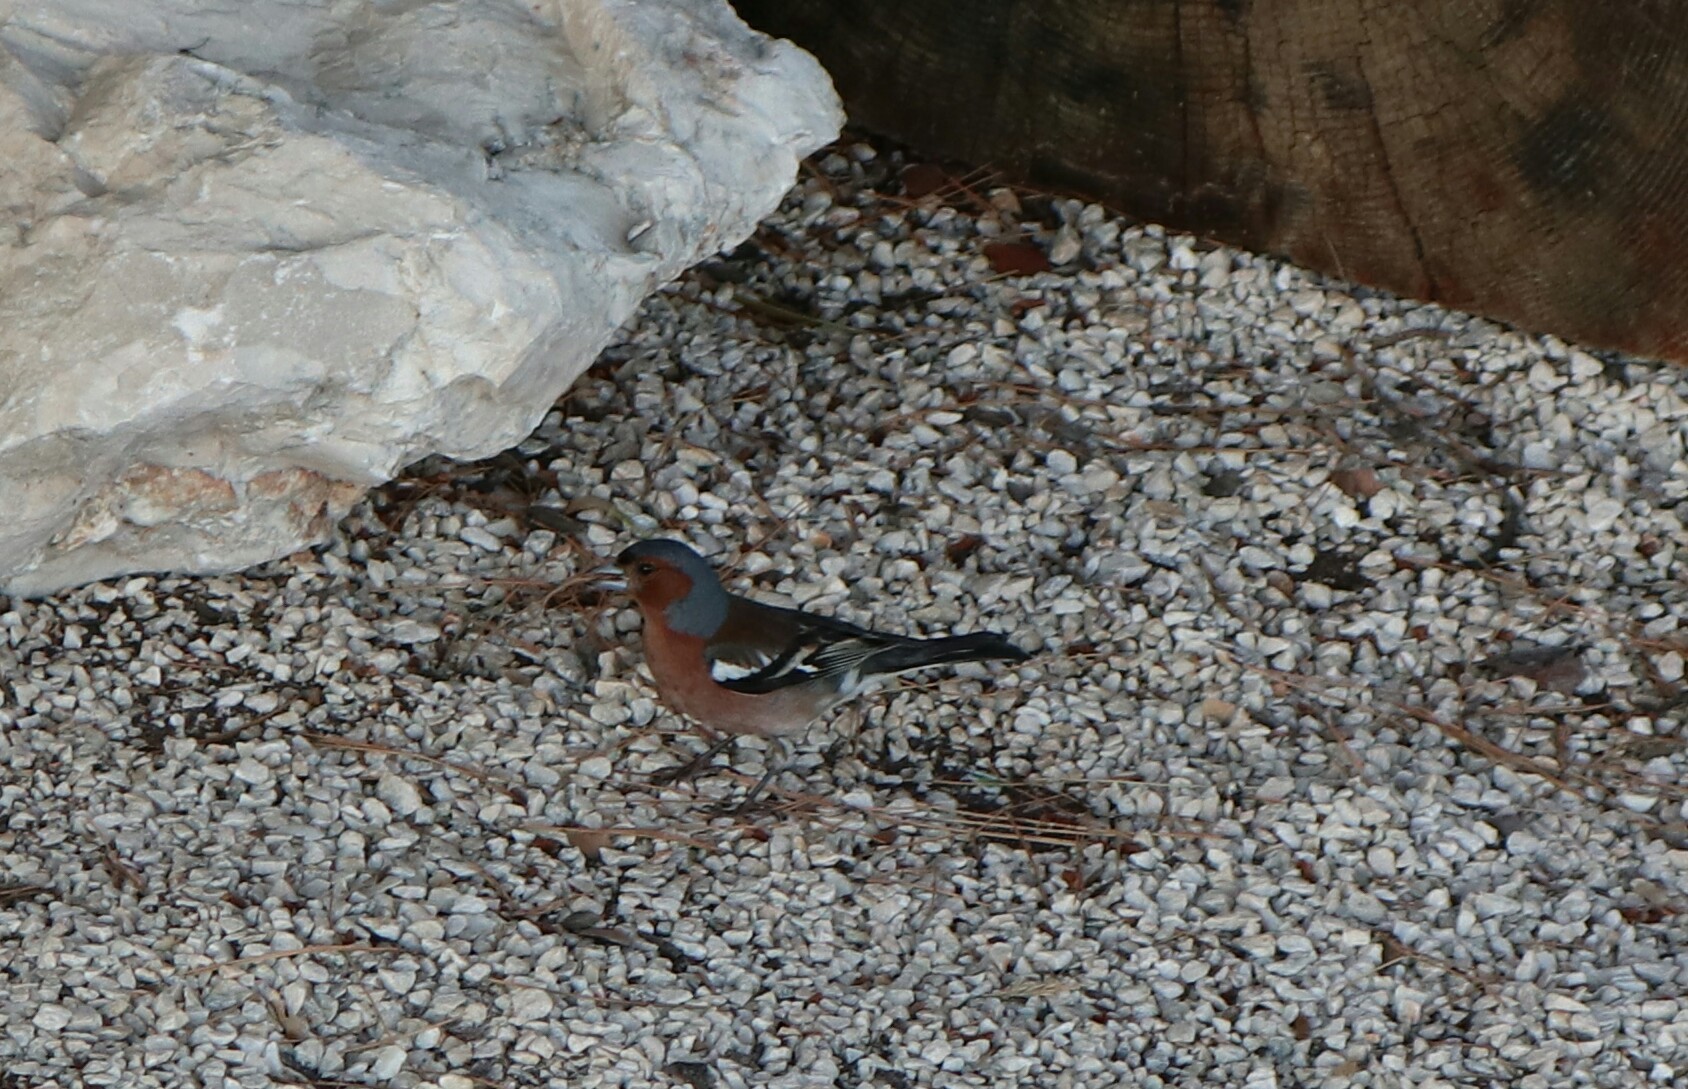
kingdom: Animalia
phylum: Chordata
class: Aves
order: Passeriformes
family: Fringillidae
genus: Fringilla
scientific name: Fringilla coelebs
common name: Common chaffinch
